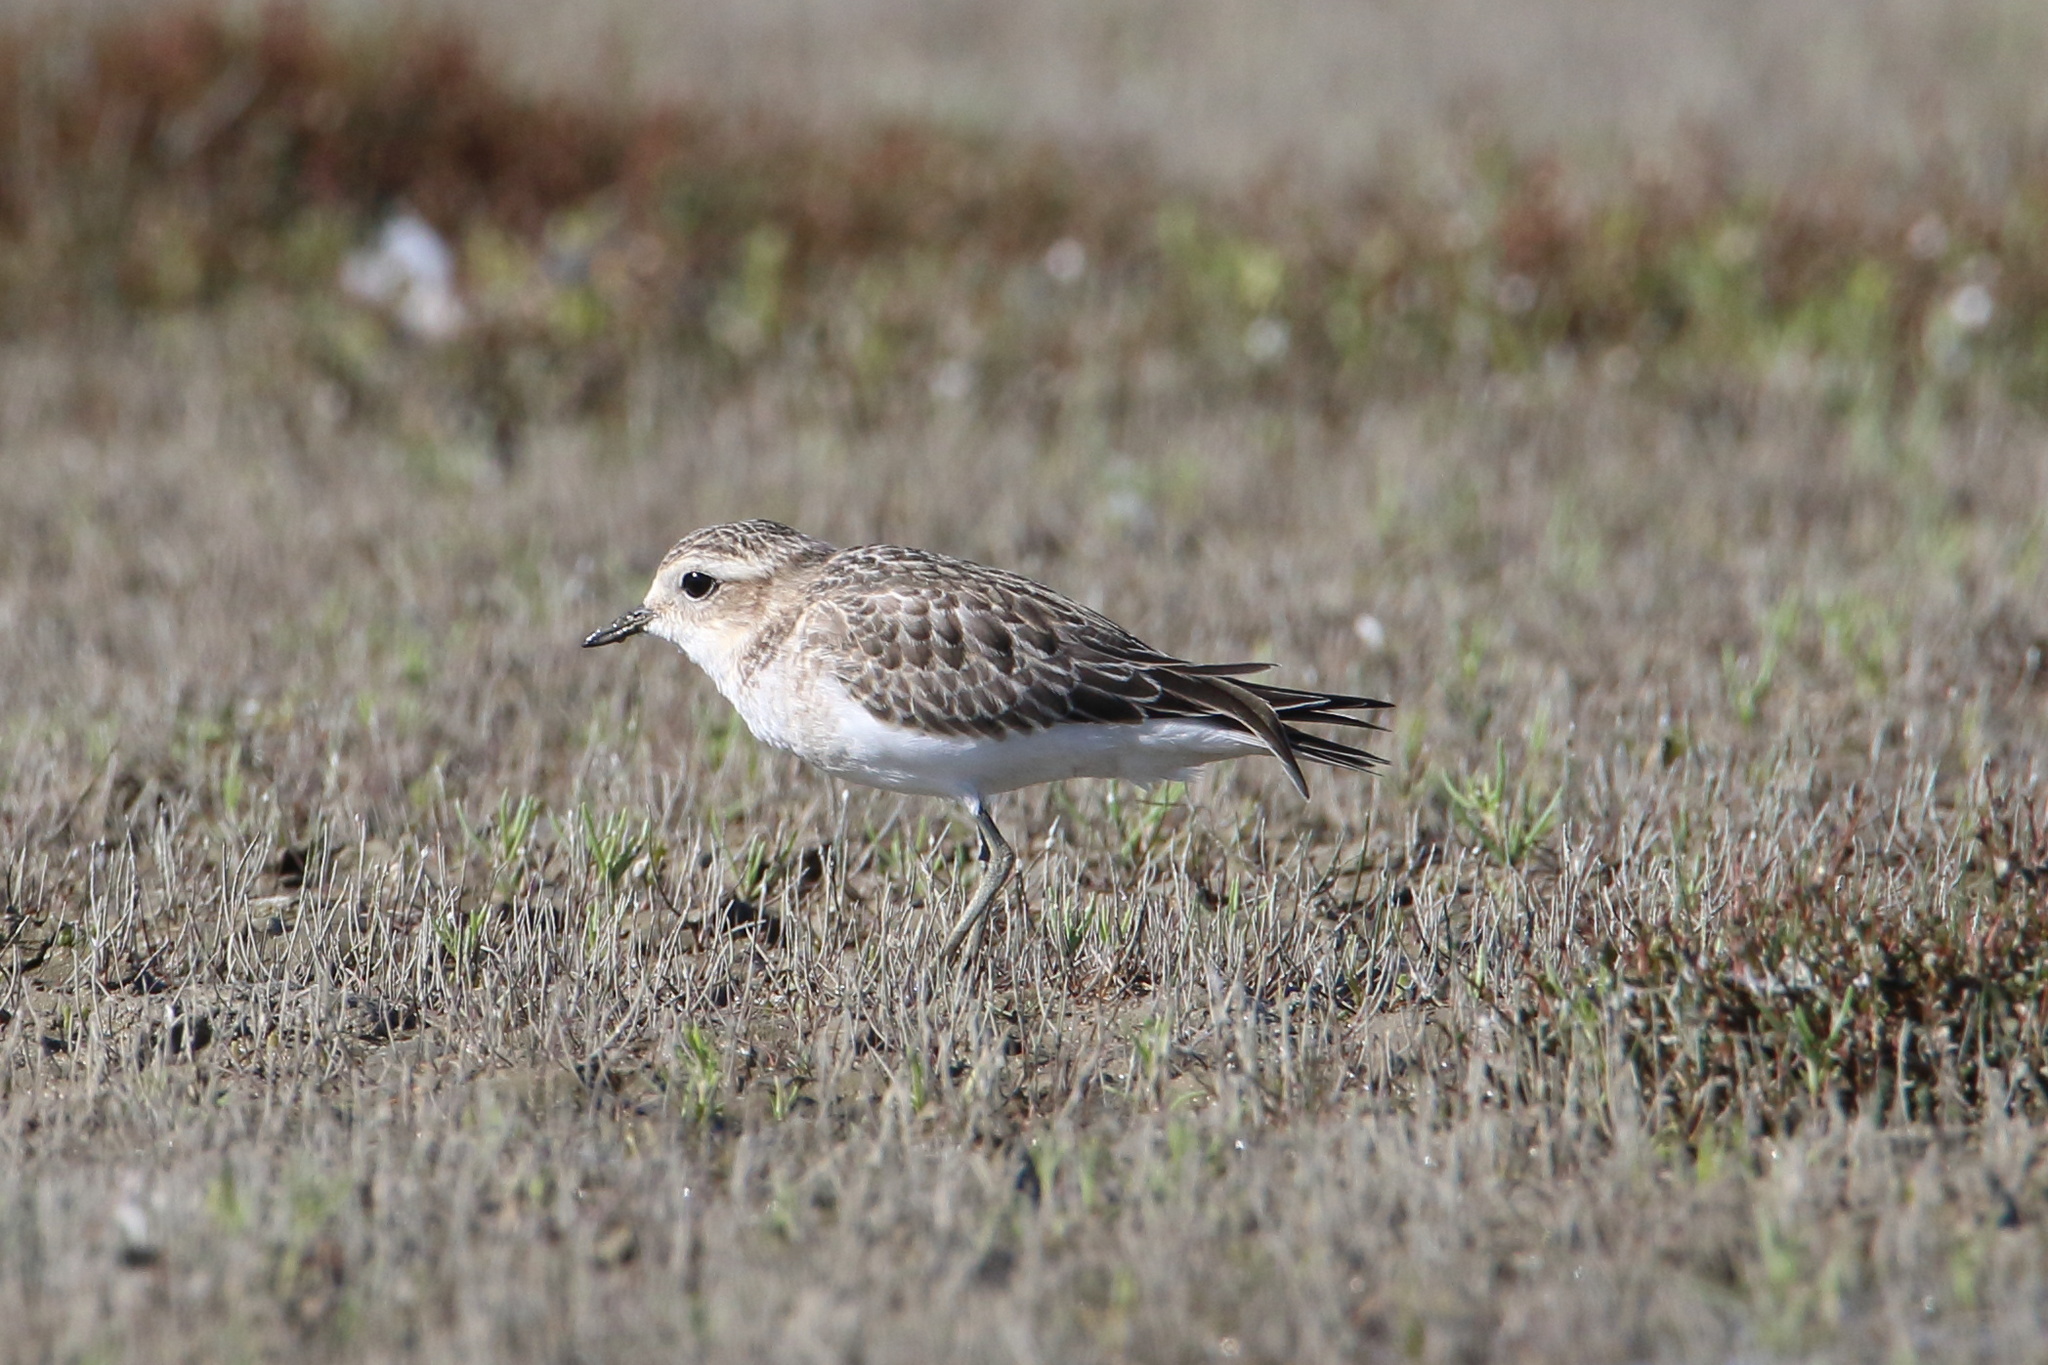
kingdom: Animalia
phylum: Chordata
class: Aves
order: Charadriiformes
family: Charadriidae
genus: Anarhynchus
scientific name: Anarhynchus
